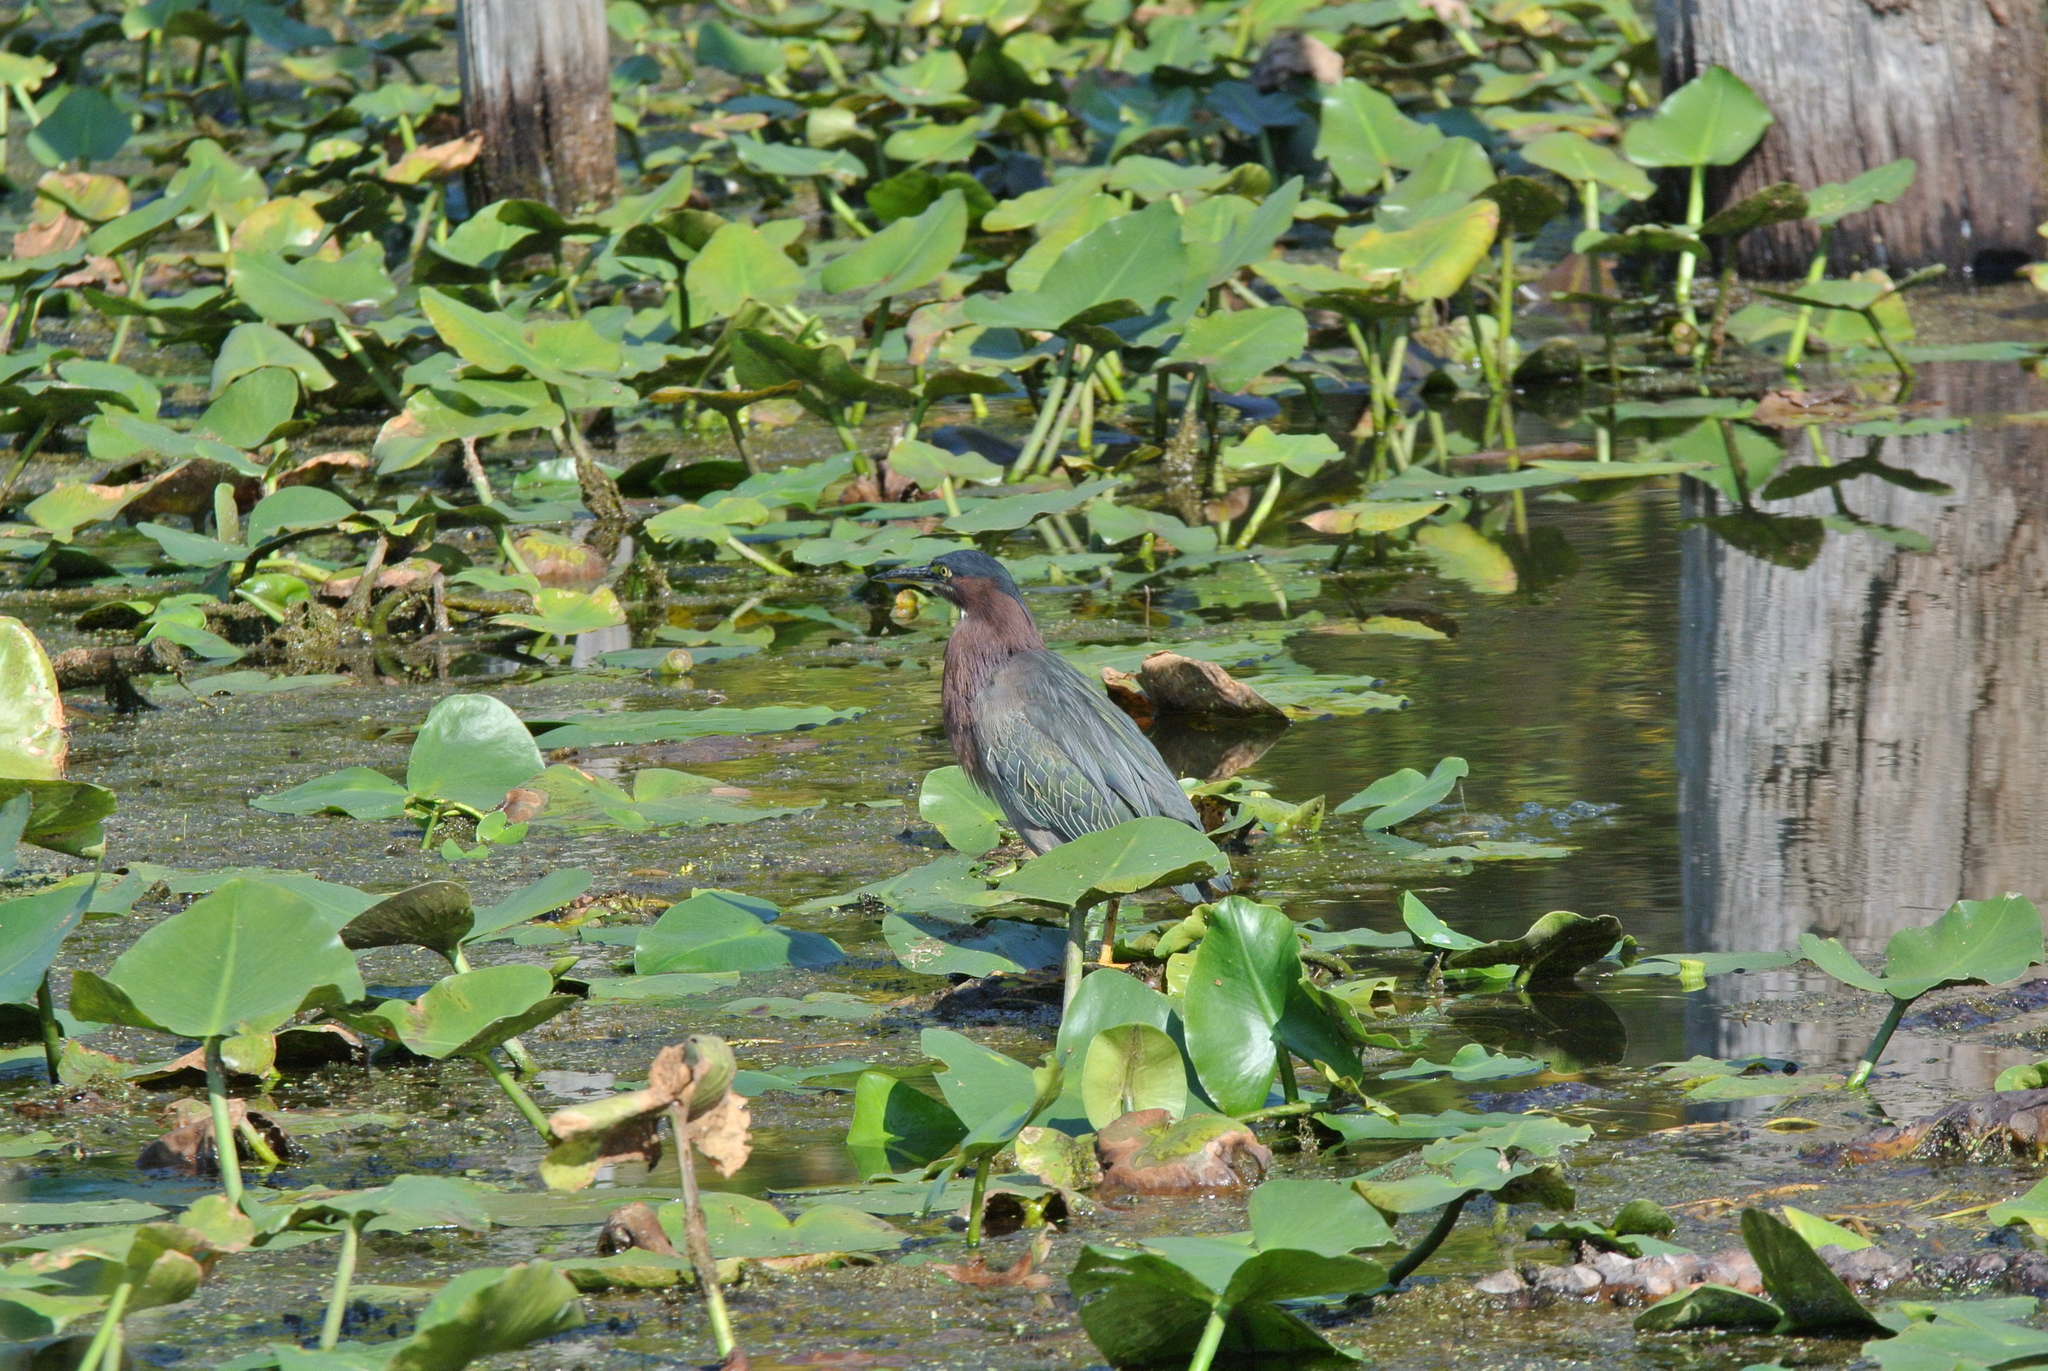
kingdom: Animalia
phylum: Chordata
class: Aves
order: Pelecaniformes
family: Ardeidae
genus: Butorides
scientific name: Butorides virescens
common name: Green heron
